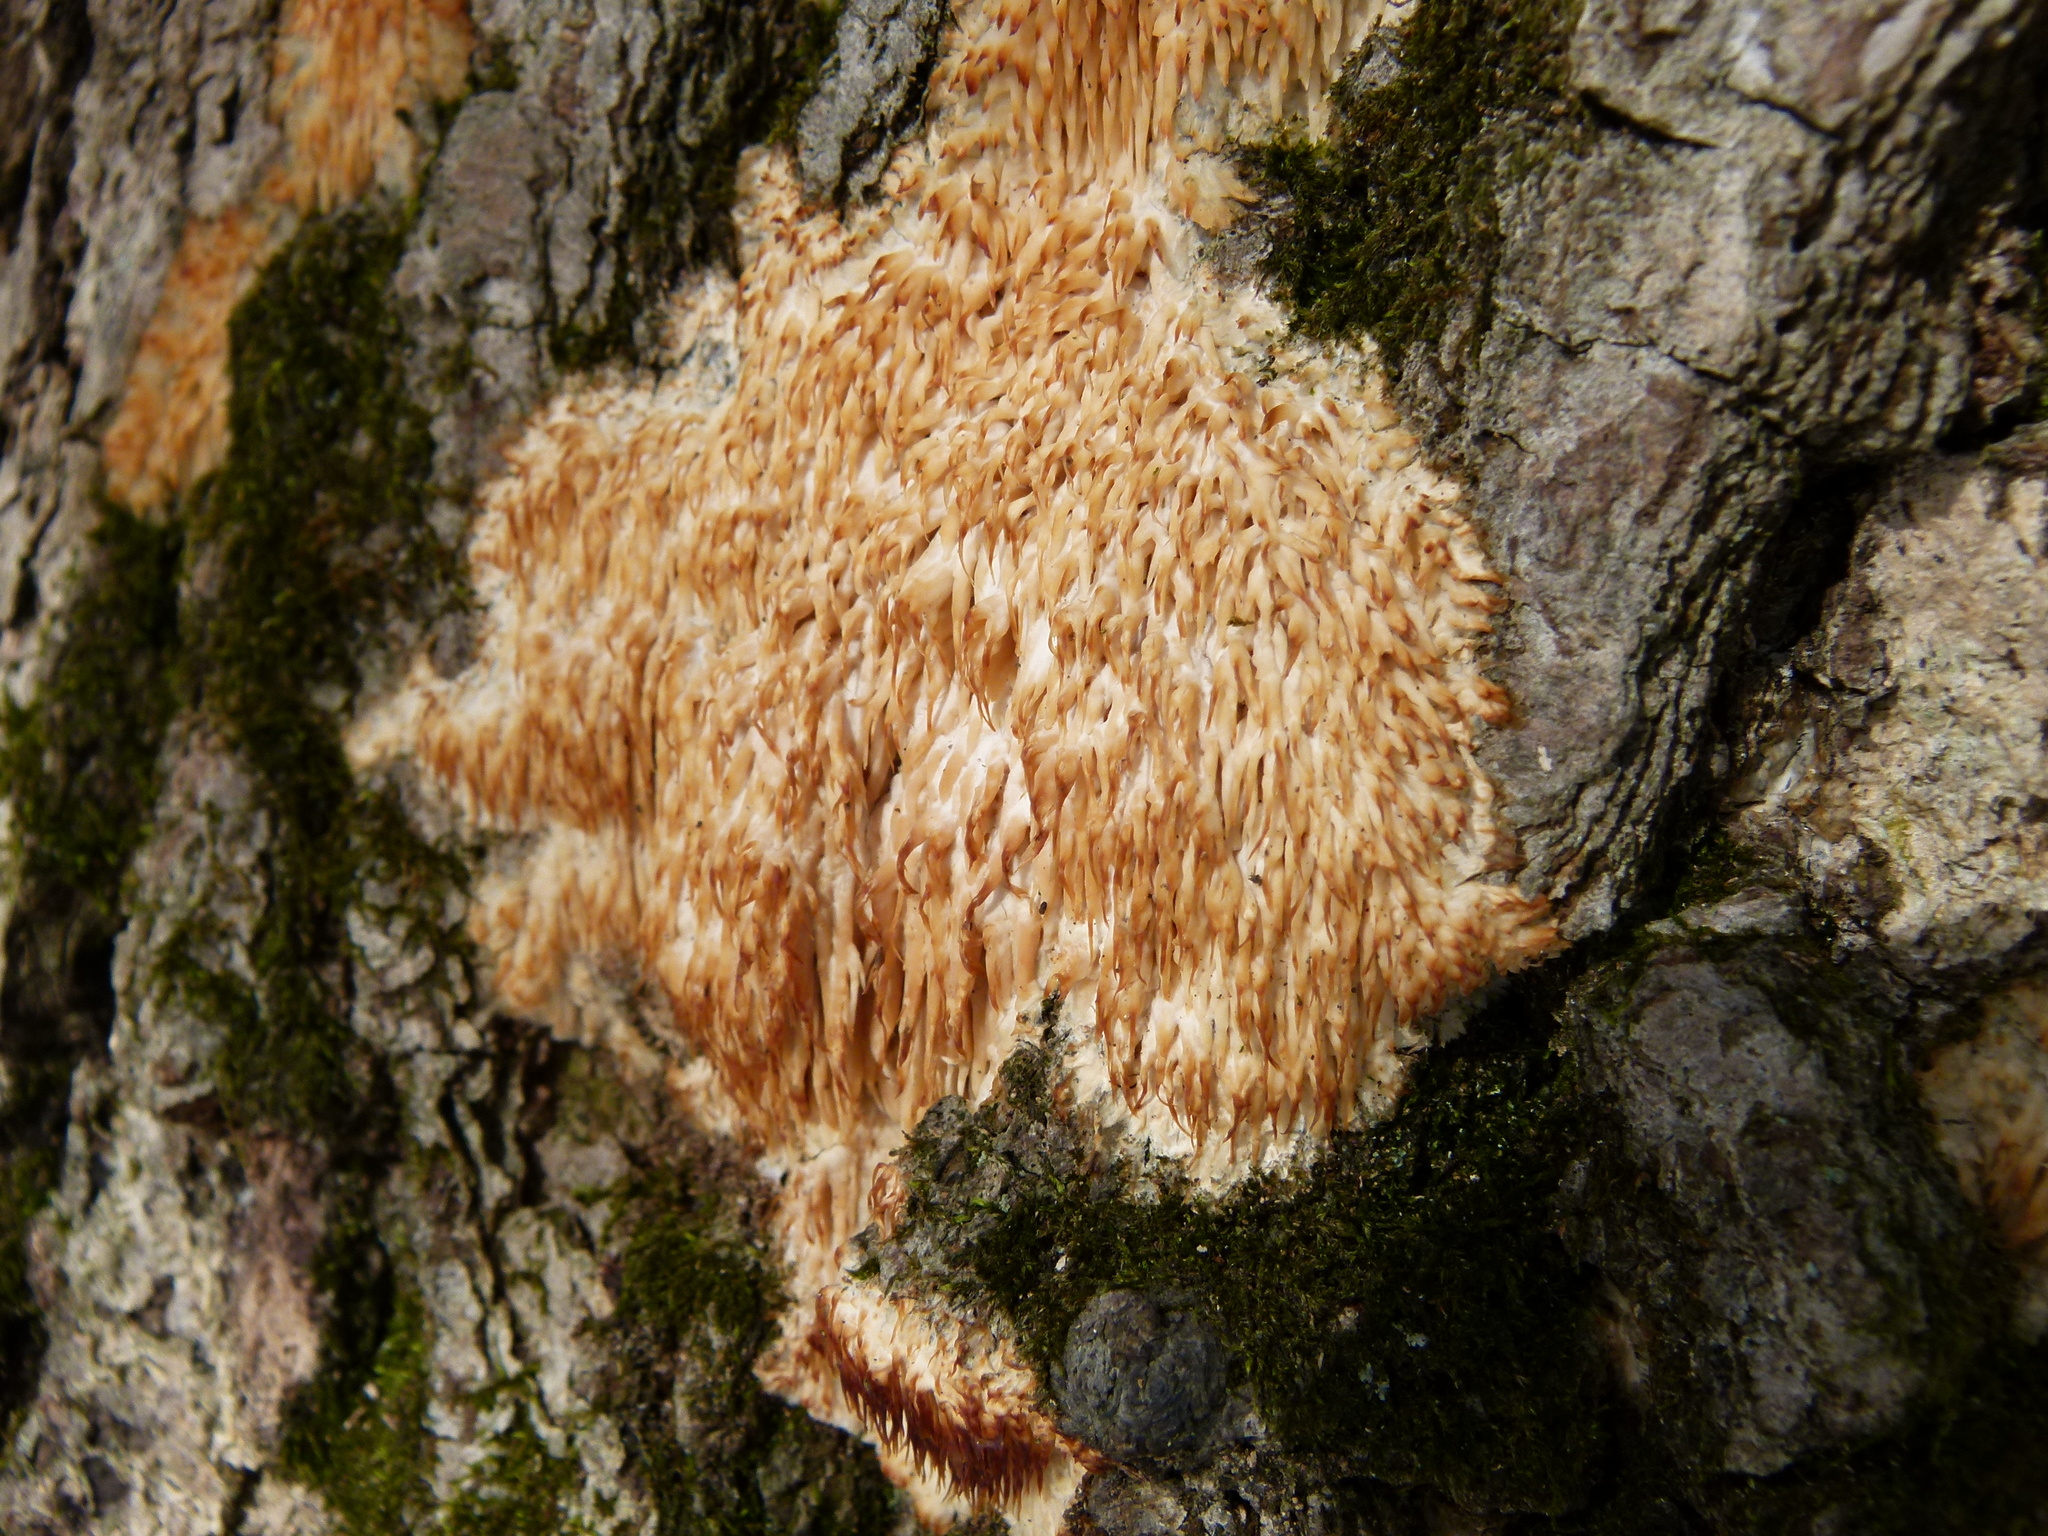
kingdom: Fungi
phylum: Basidiomycota
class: Agaricomycetes
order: Agaricales
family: Radulomycetaceae
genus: Radulomyces
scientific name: Radulomyces copelandii
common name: Asian beauty
